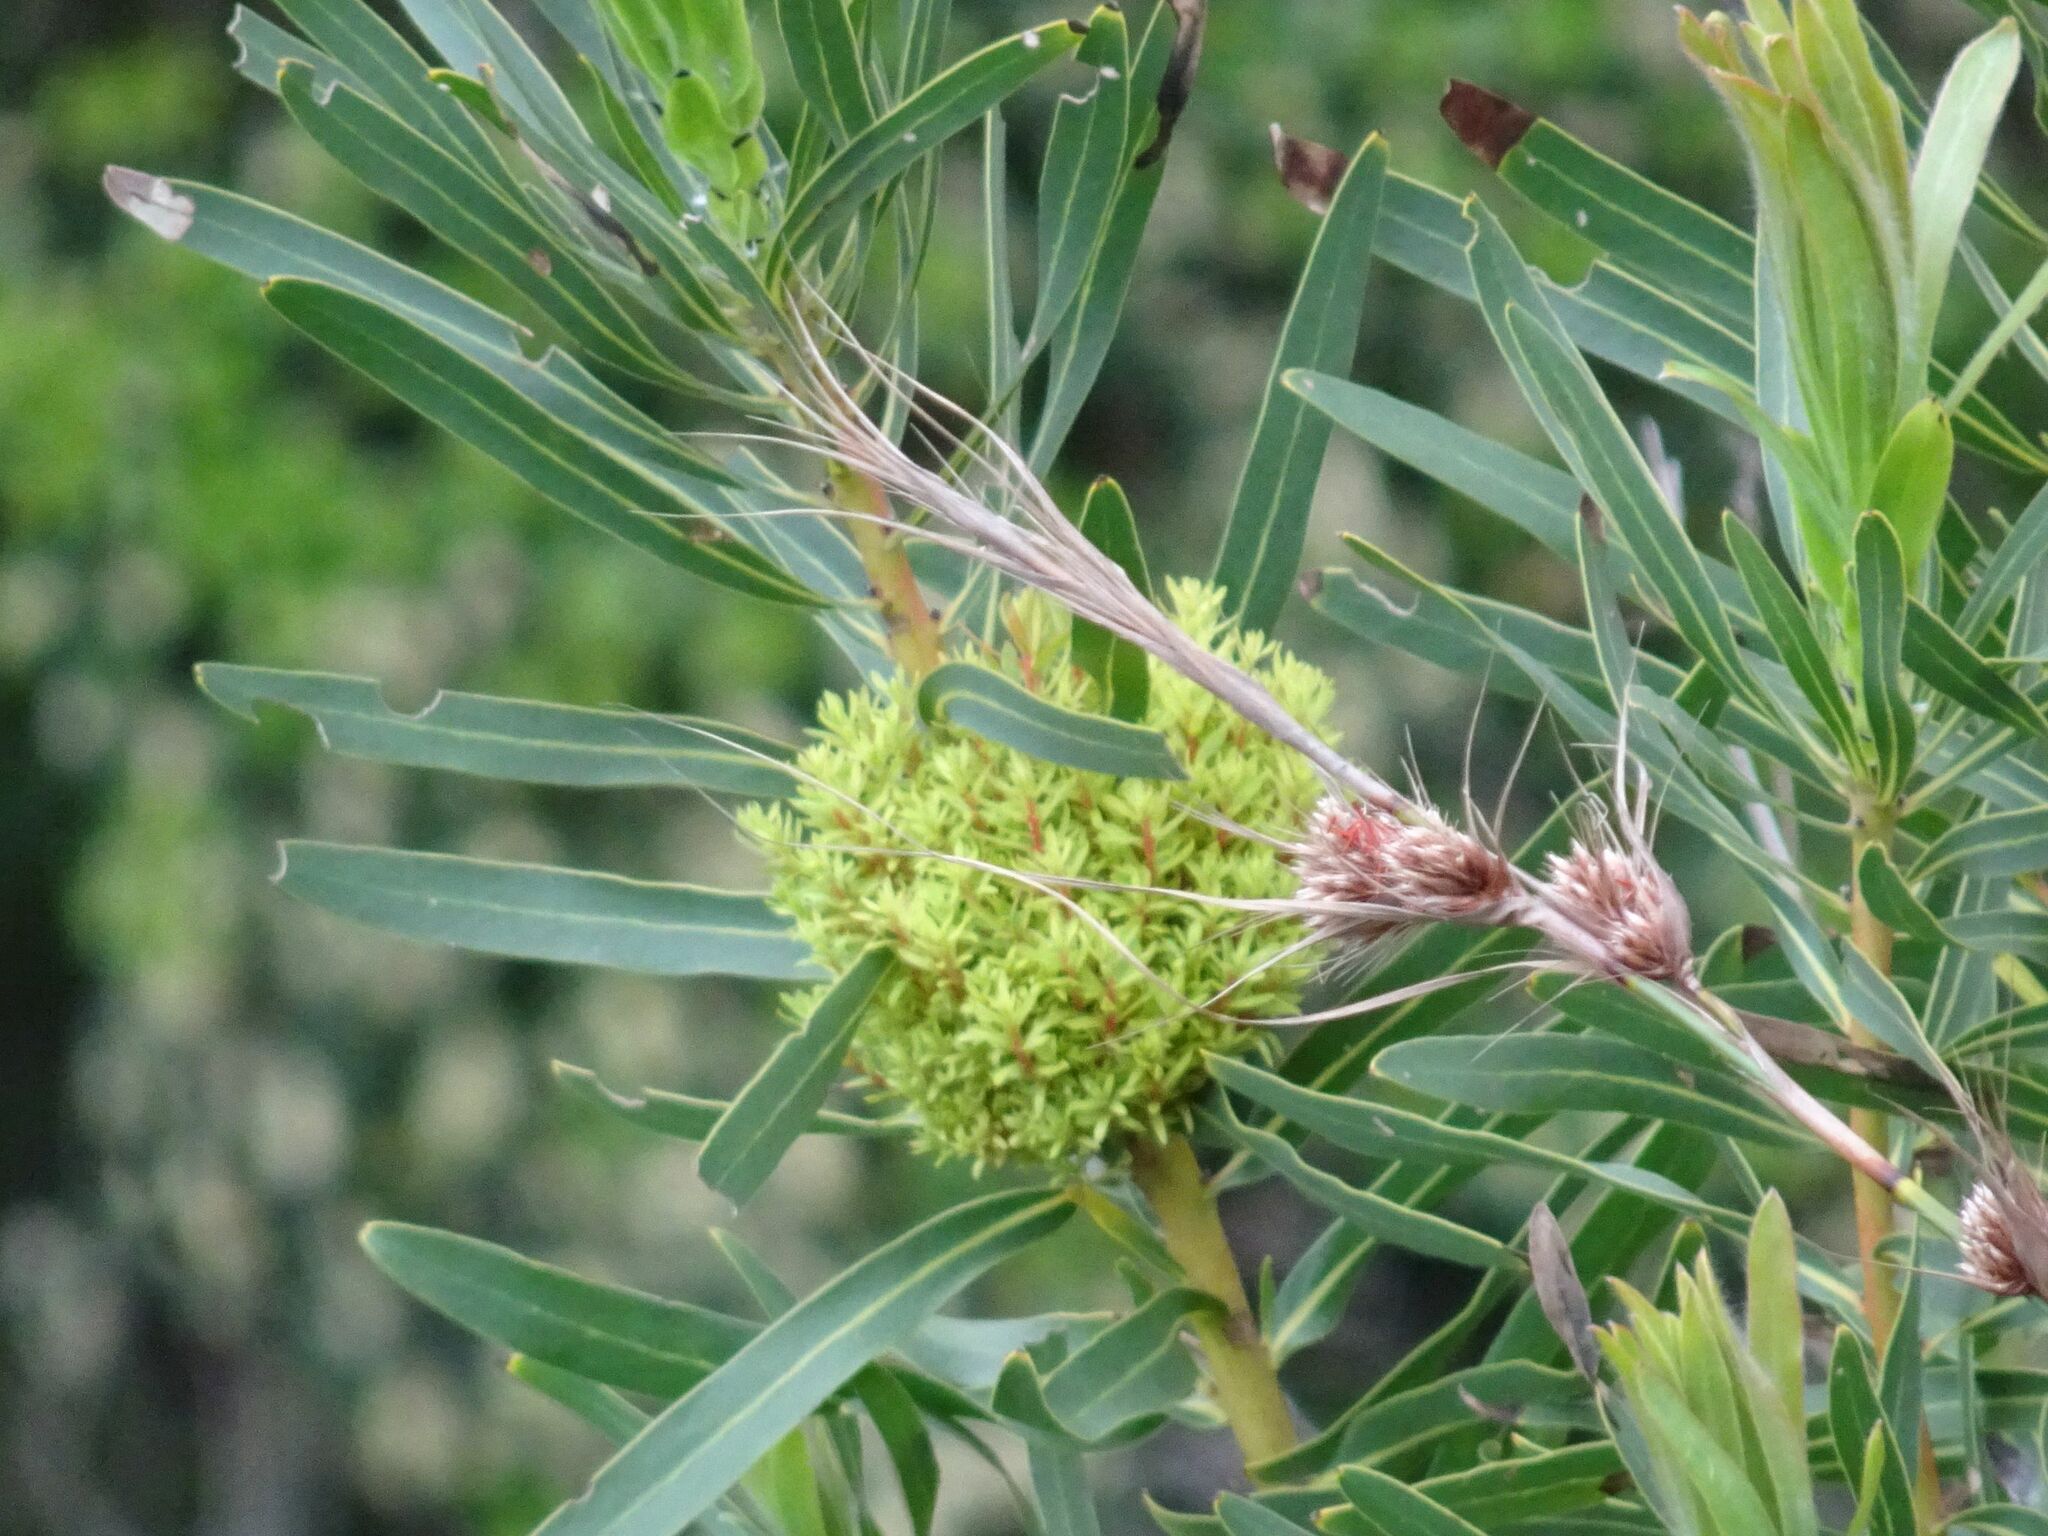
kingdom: Bacteria
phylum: Firmicutes
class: Bacilli
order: Acholeplasmatales
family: Acholeplasmataceae
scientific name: Acholeplasmataceae
